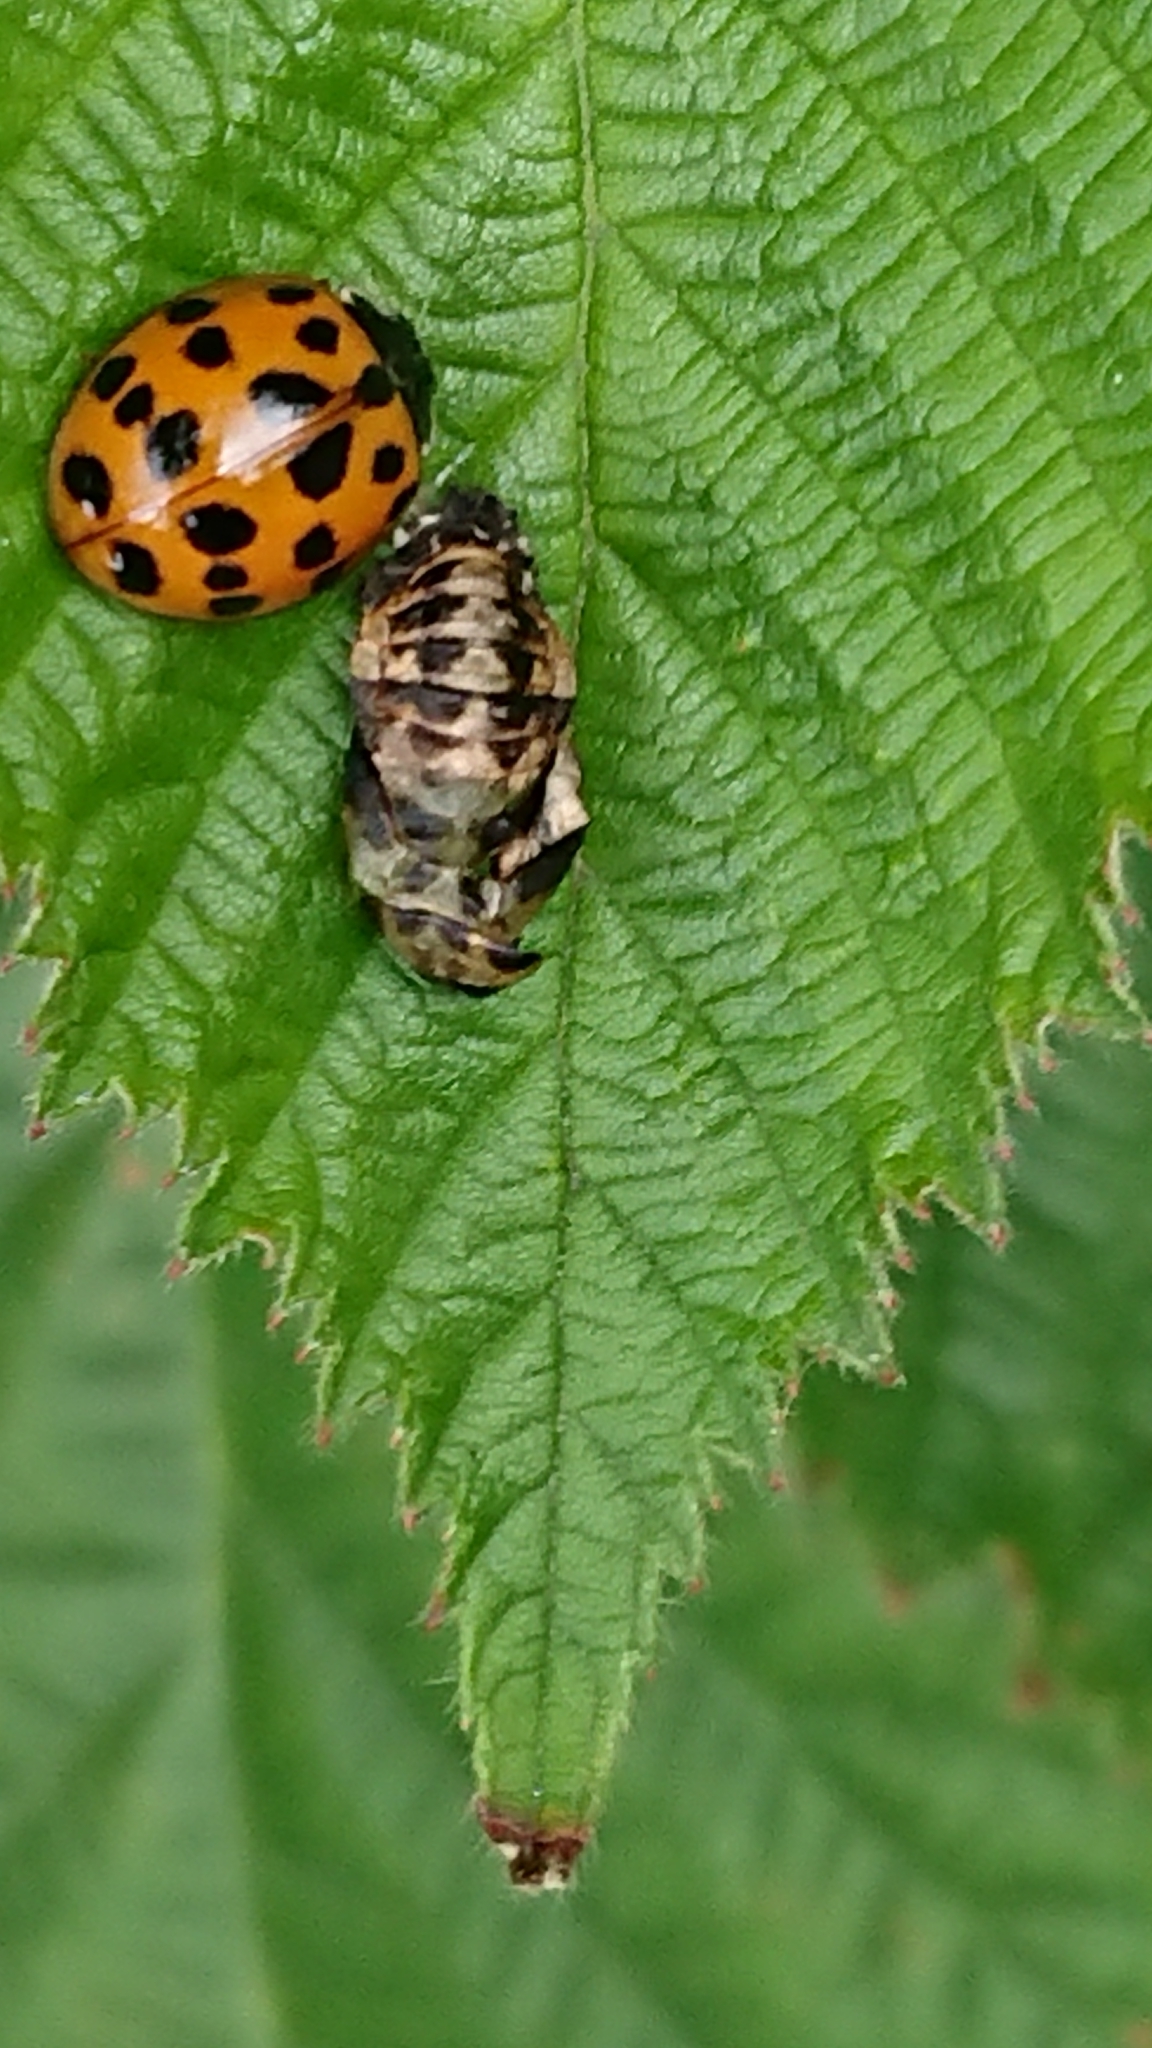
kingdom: Animalia
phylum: Arthropoda
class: Insecta
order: Coleoptera
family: Coccinellidae
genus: Harmonia
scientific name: Harmonia axyridis
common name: Harlequin ladybird
